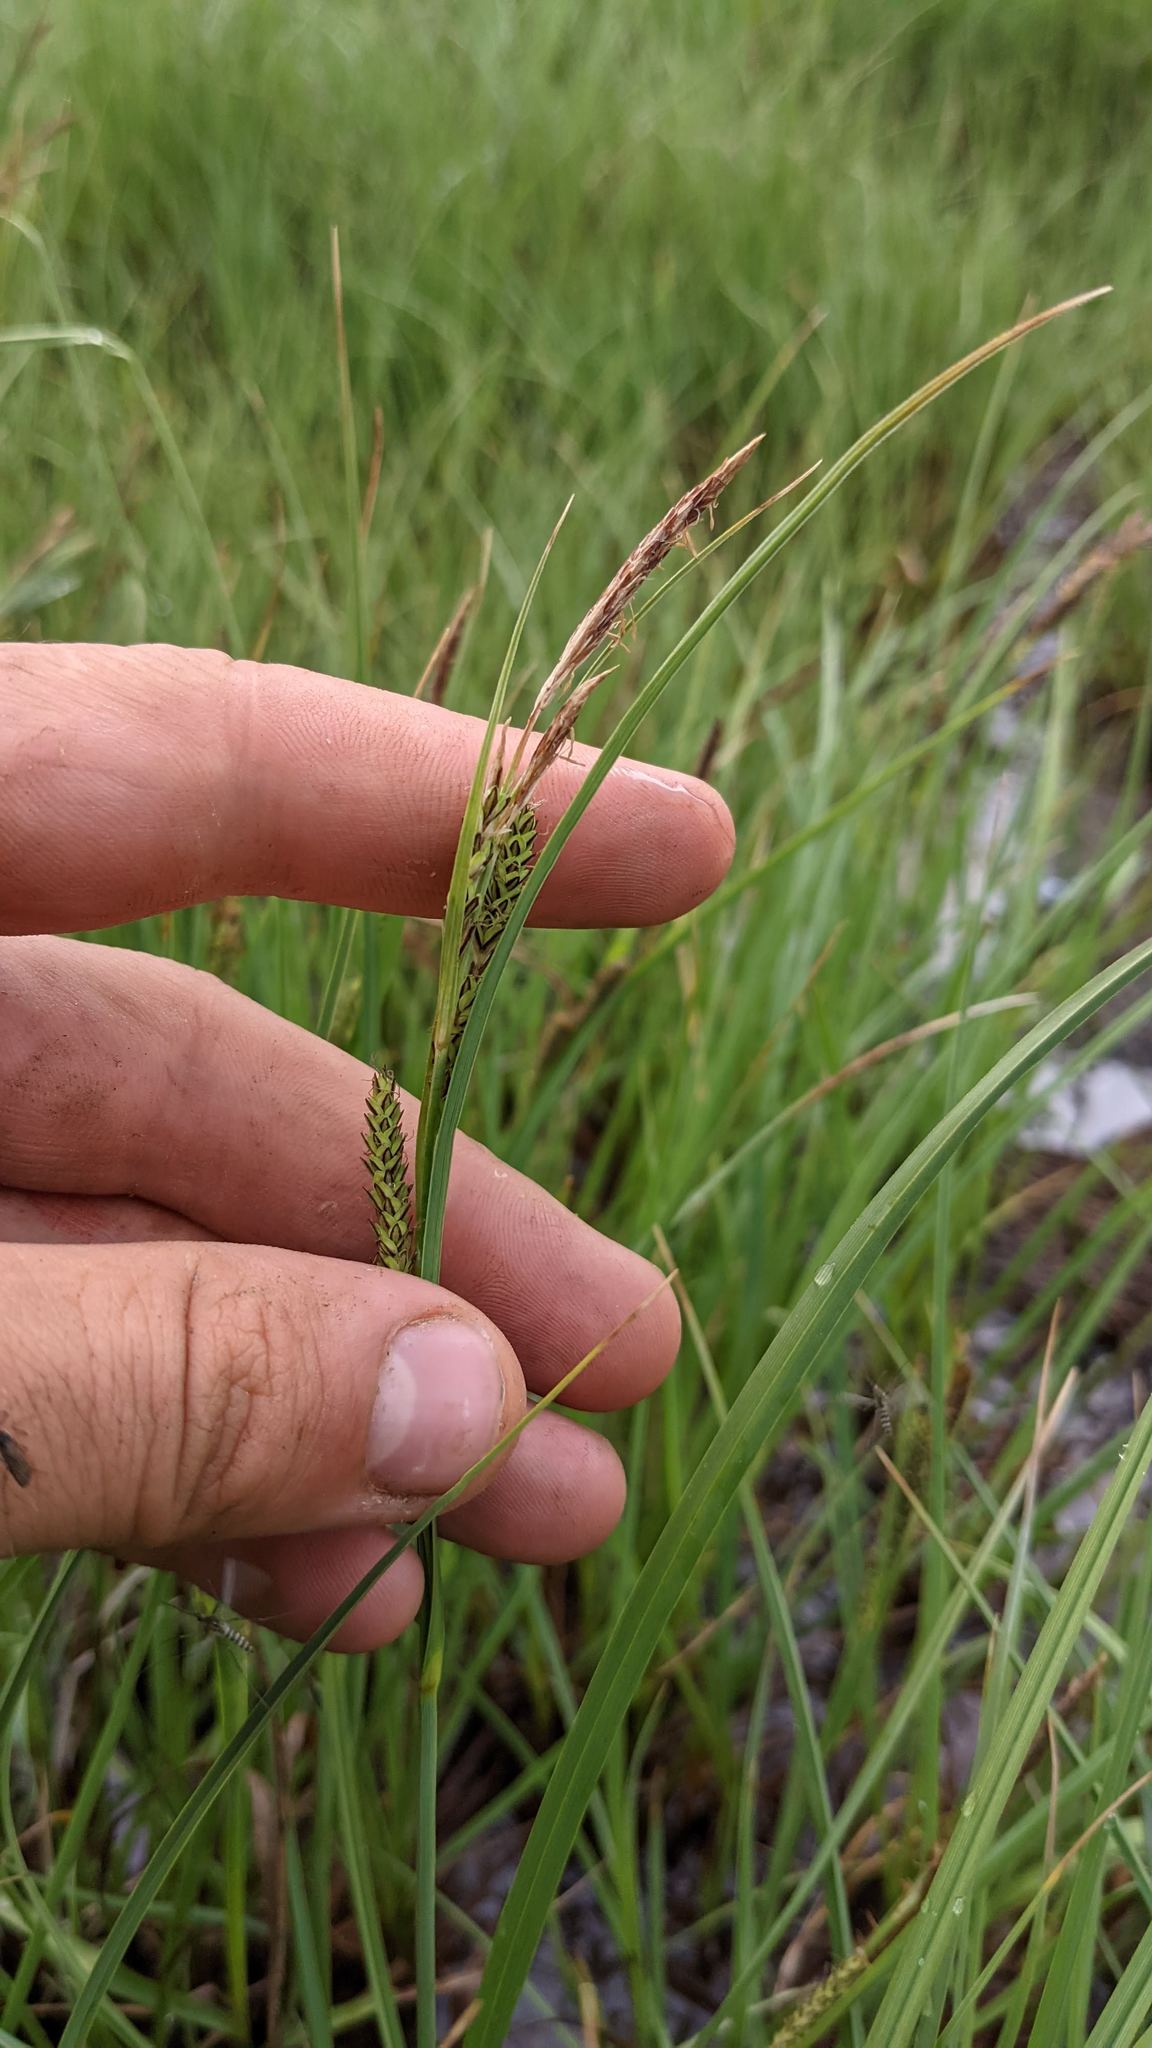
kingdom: Plantae
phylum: Tracheophyta
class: Liliopsida
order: Poales
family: Cyperaceae
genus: Carex
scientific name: Carex aquatilis
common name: Water sedge
